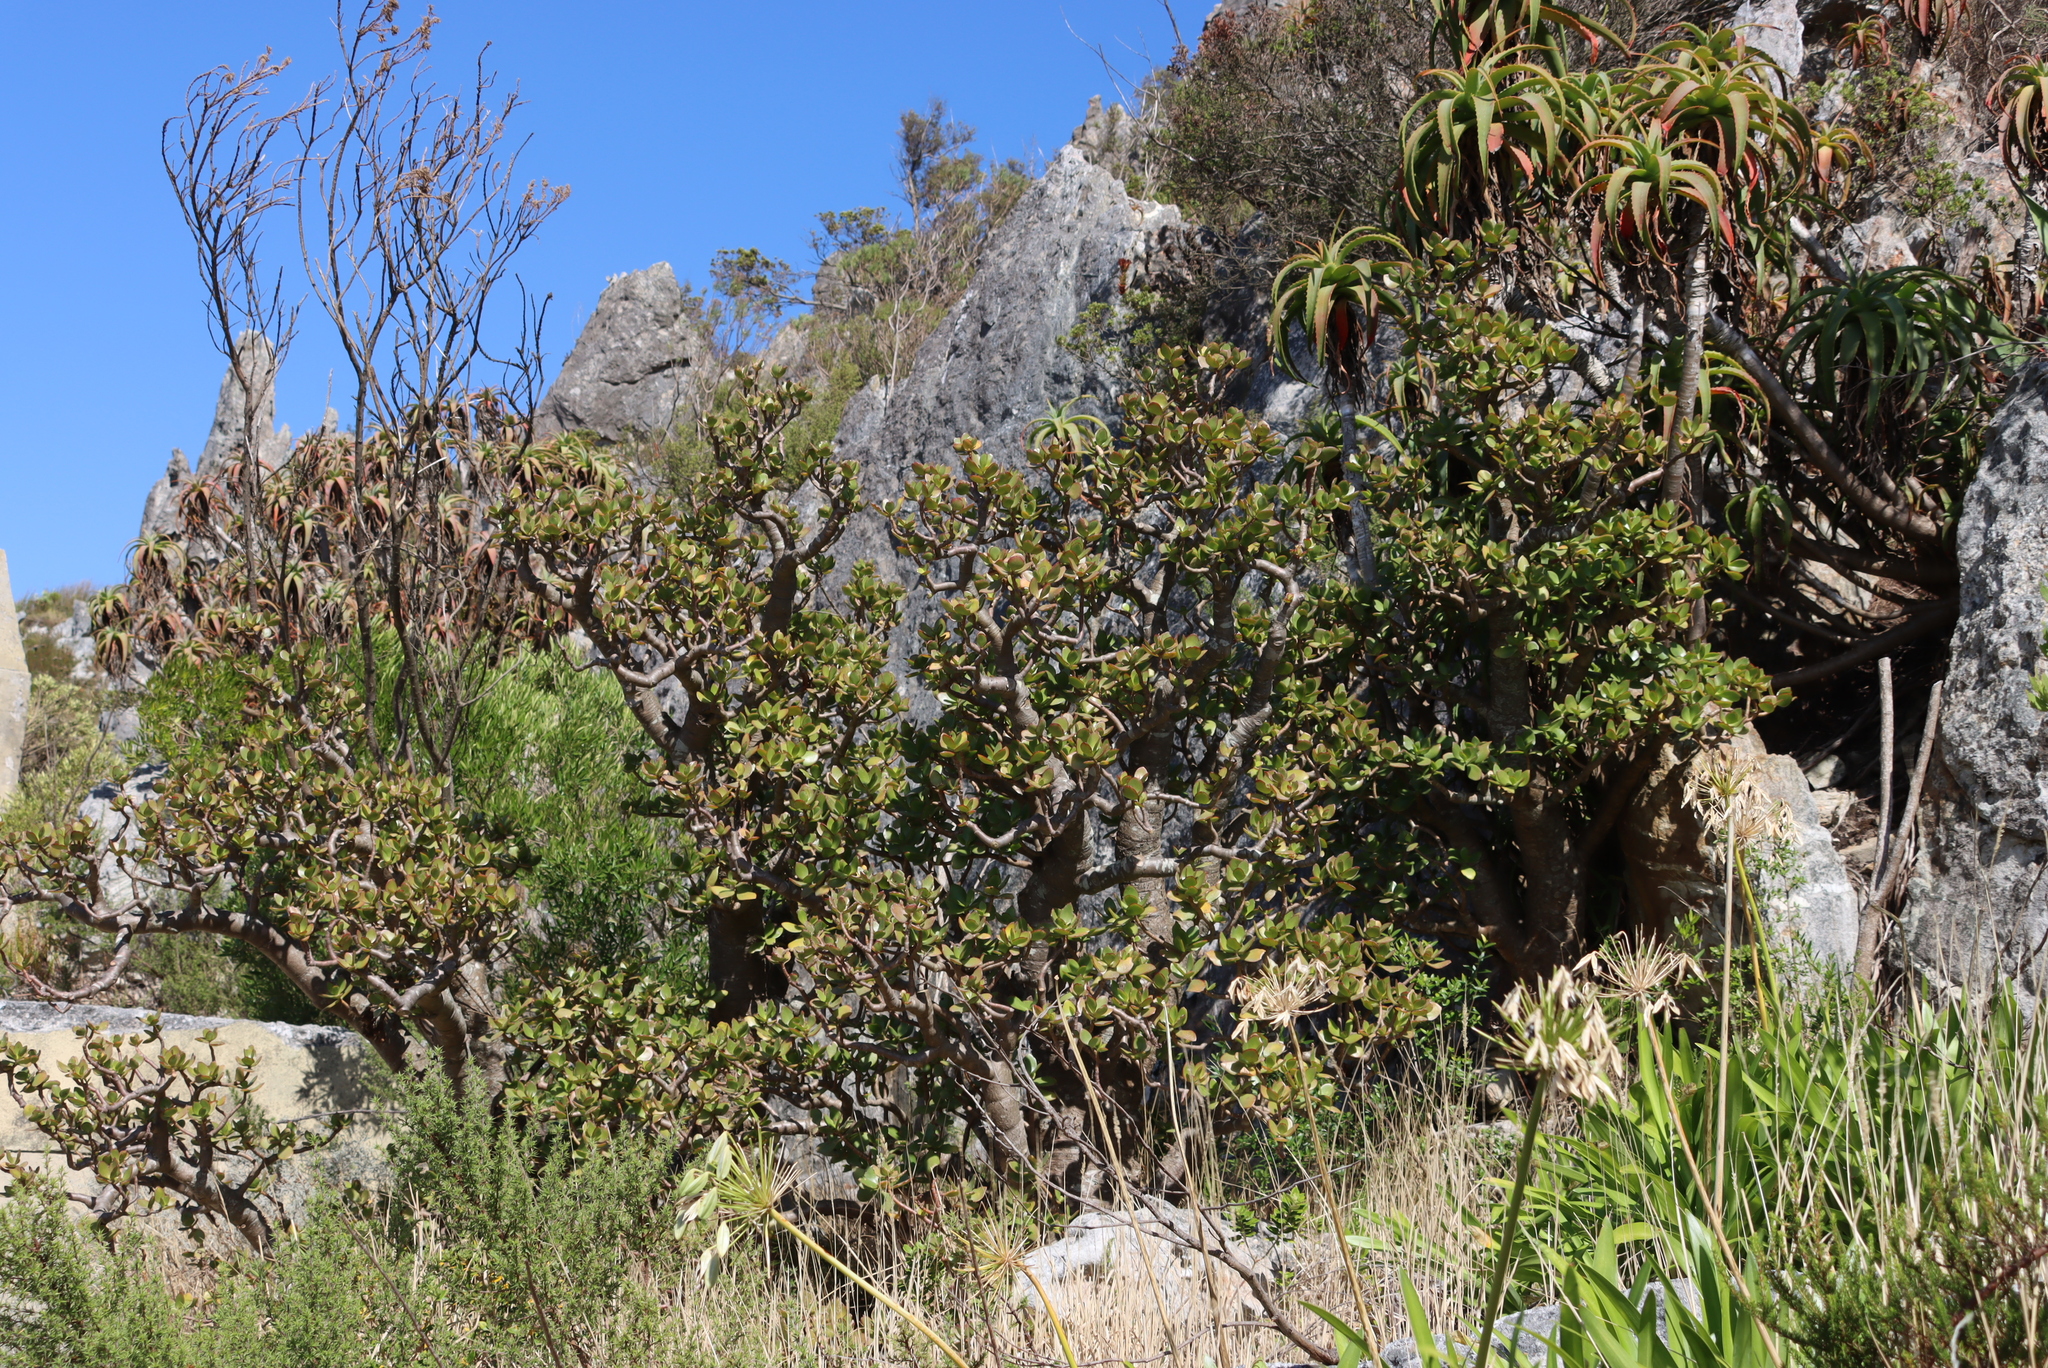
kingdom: Plantae
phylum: Tracheophyta
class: Magnoliopsida
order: Saxifragales
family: Crassulaceae
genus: Crassula
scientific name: Crassula ovata
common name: Jade plant
